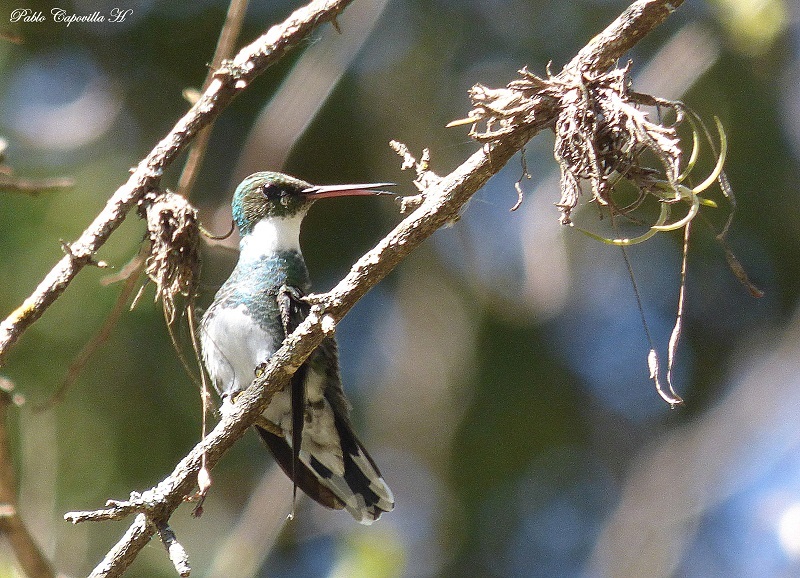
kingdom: Animalia
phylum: Chordata
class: Aves
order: Apodiformes
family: Trochilidae
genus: Leucochloris
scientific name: Leucochloris albicollis
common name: White-throated hummingbird
